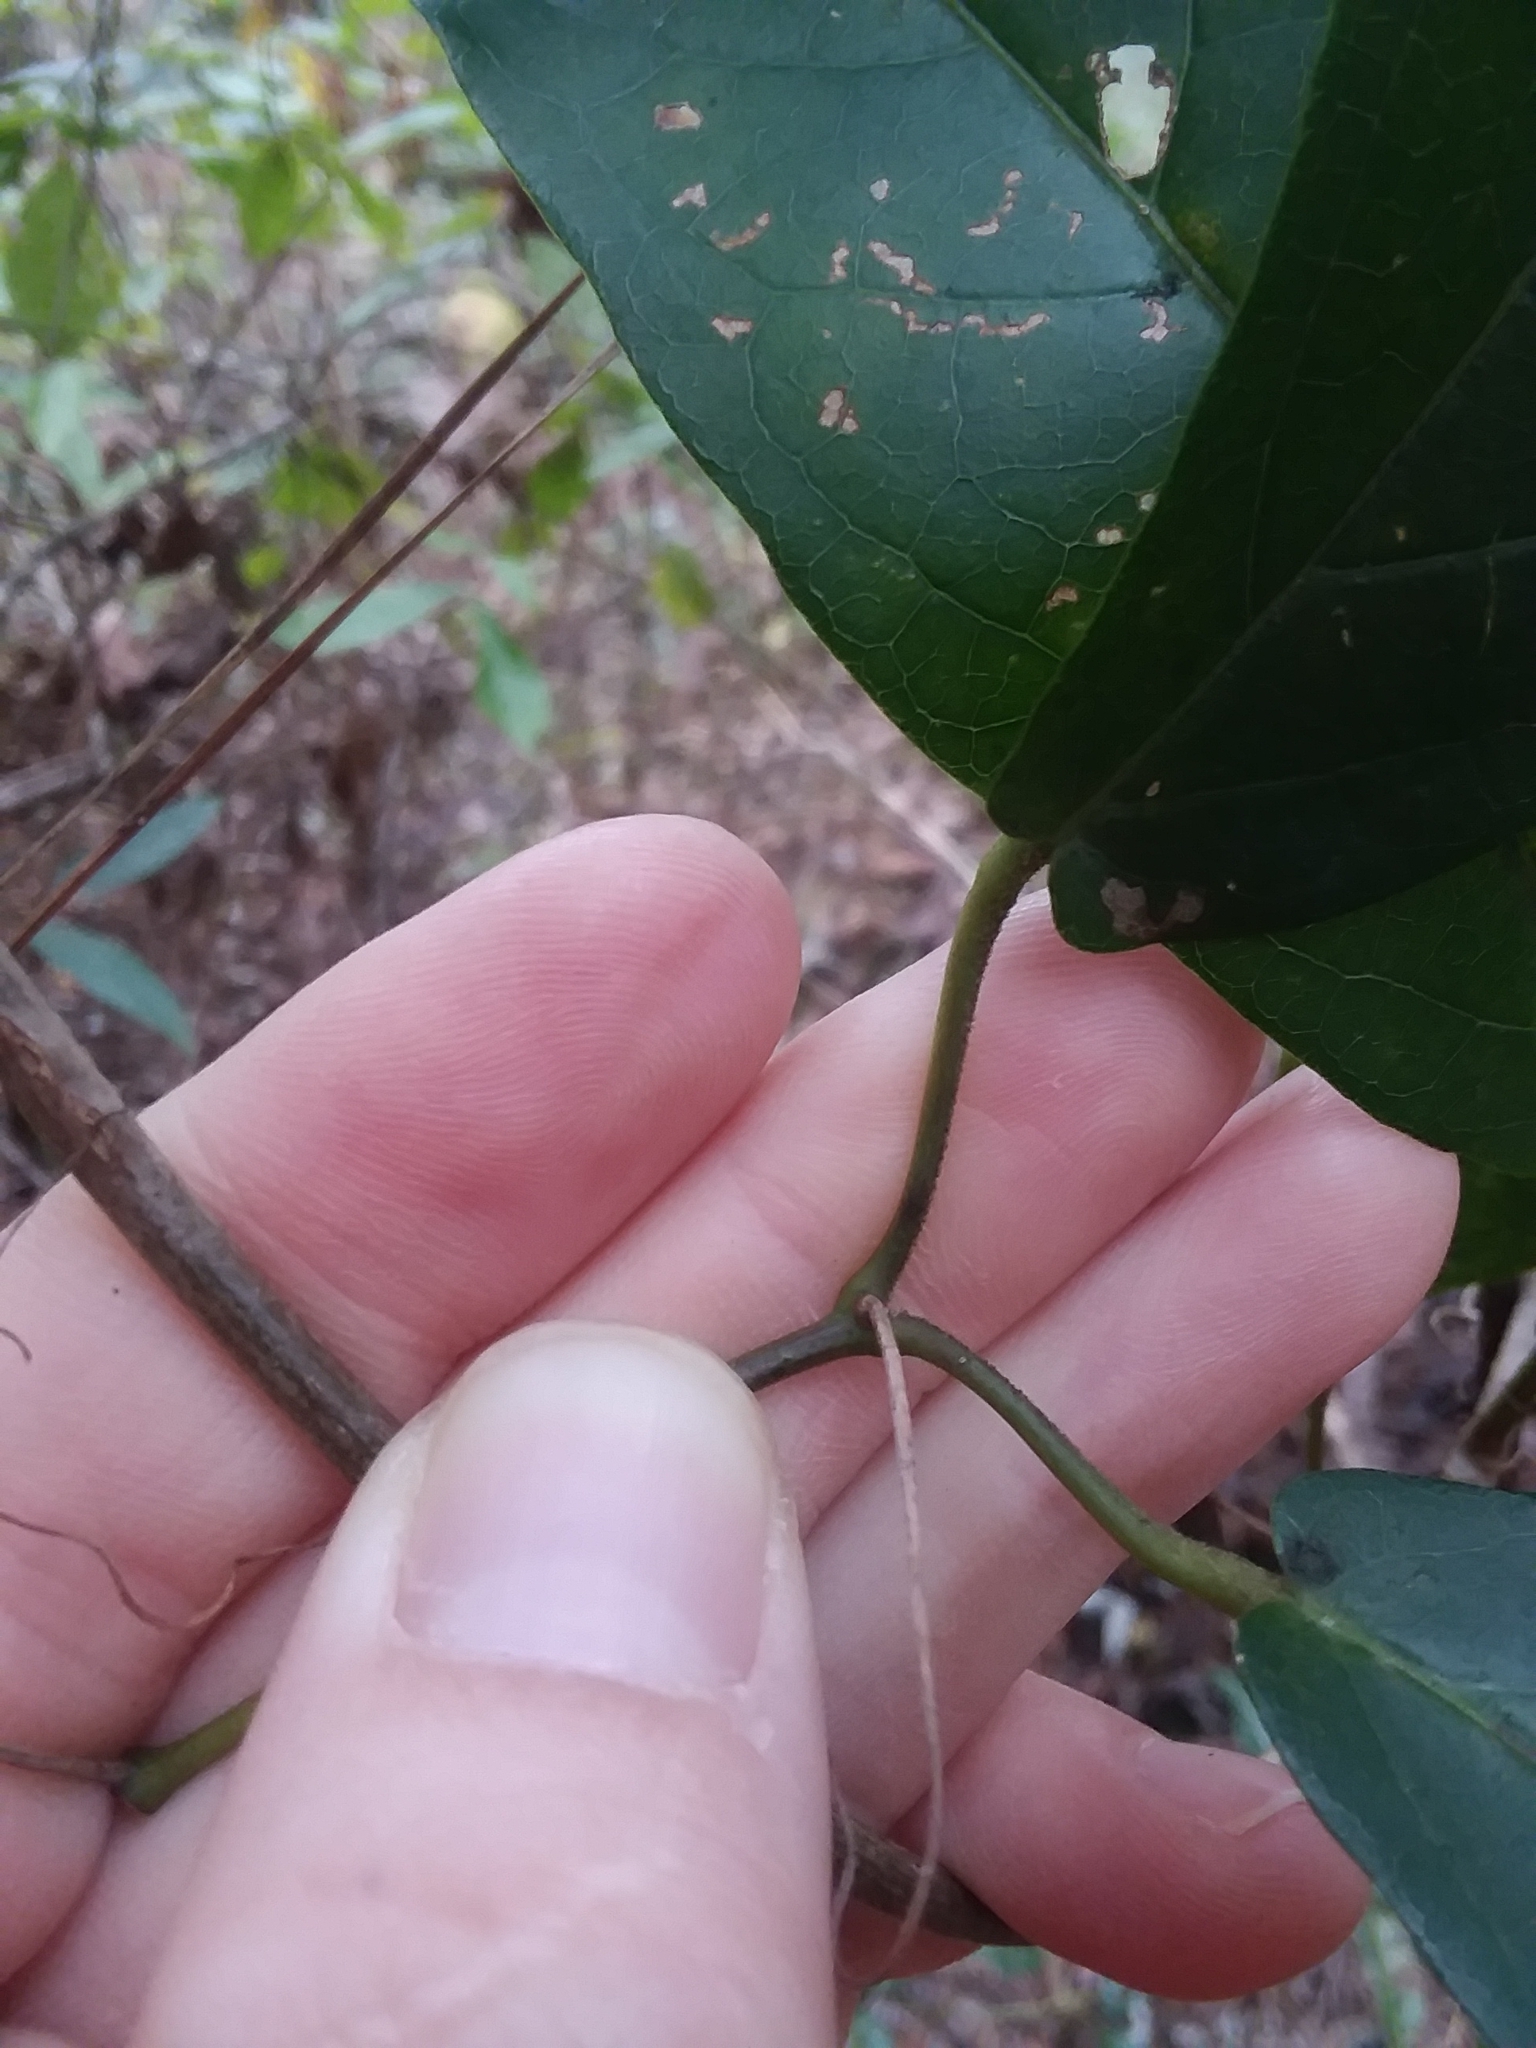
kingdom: Plantae
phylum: Tracheophyta
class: Magnoliopsida
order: Lamiales
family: Bignoniaceae
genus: Bignonia
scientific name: Bignonia capreolata
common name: Crossvine
